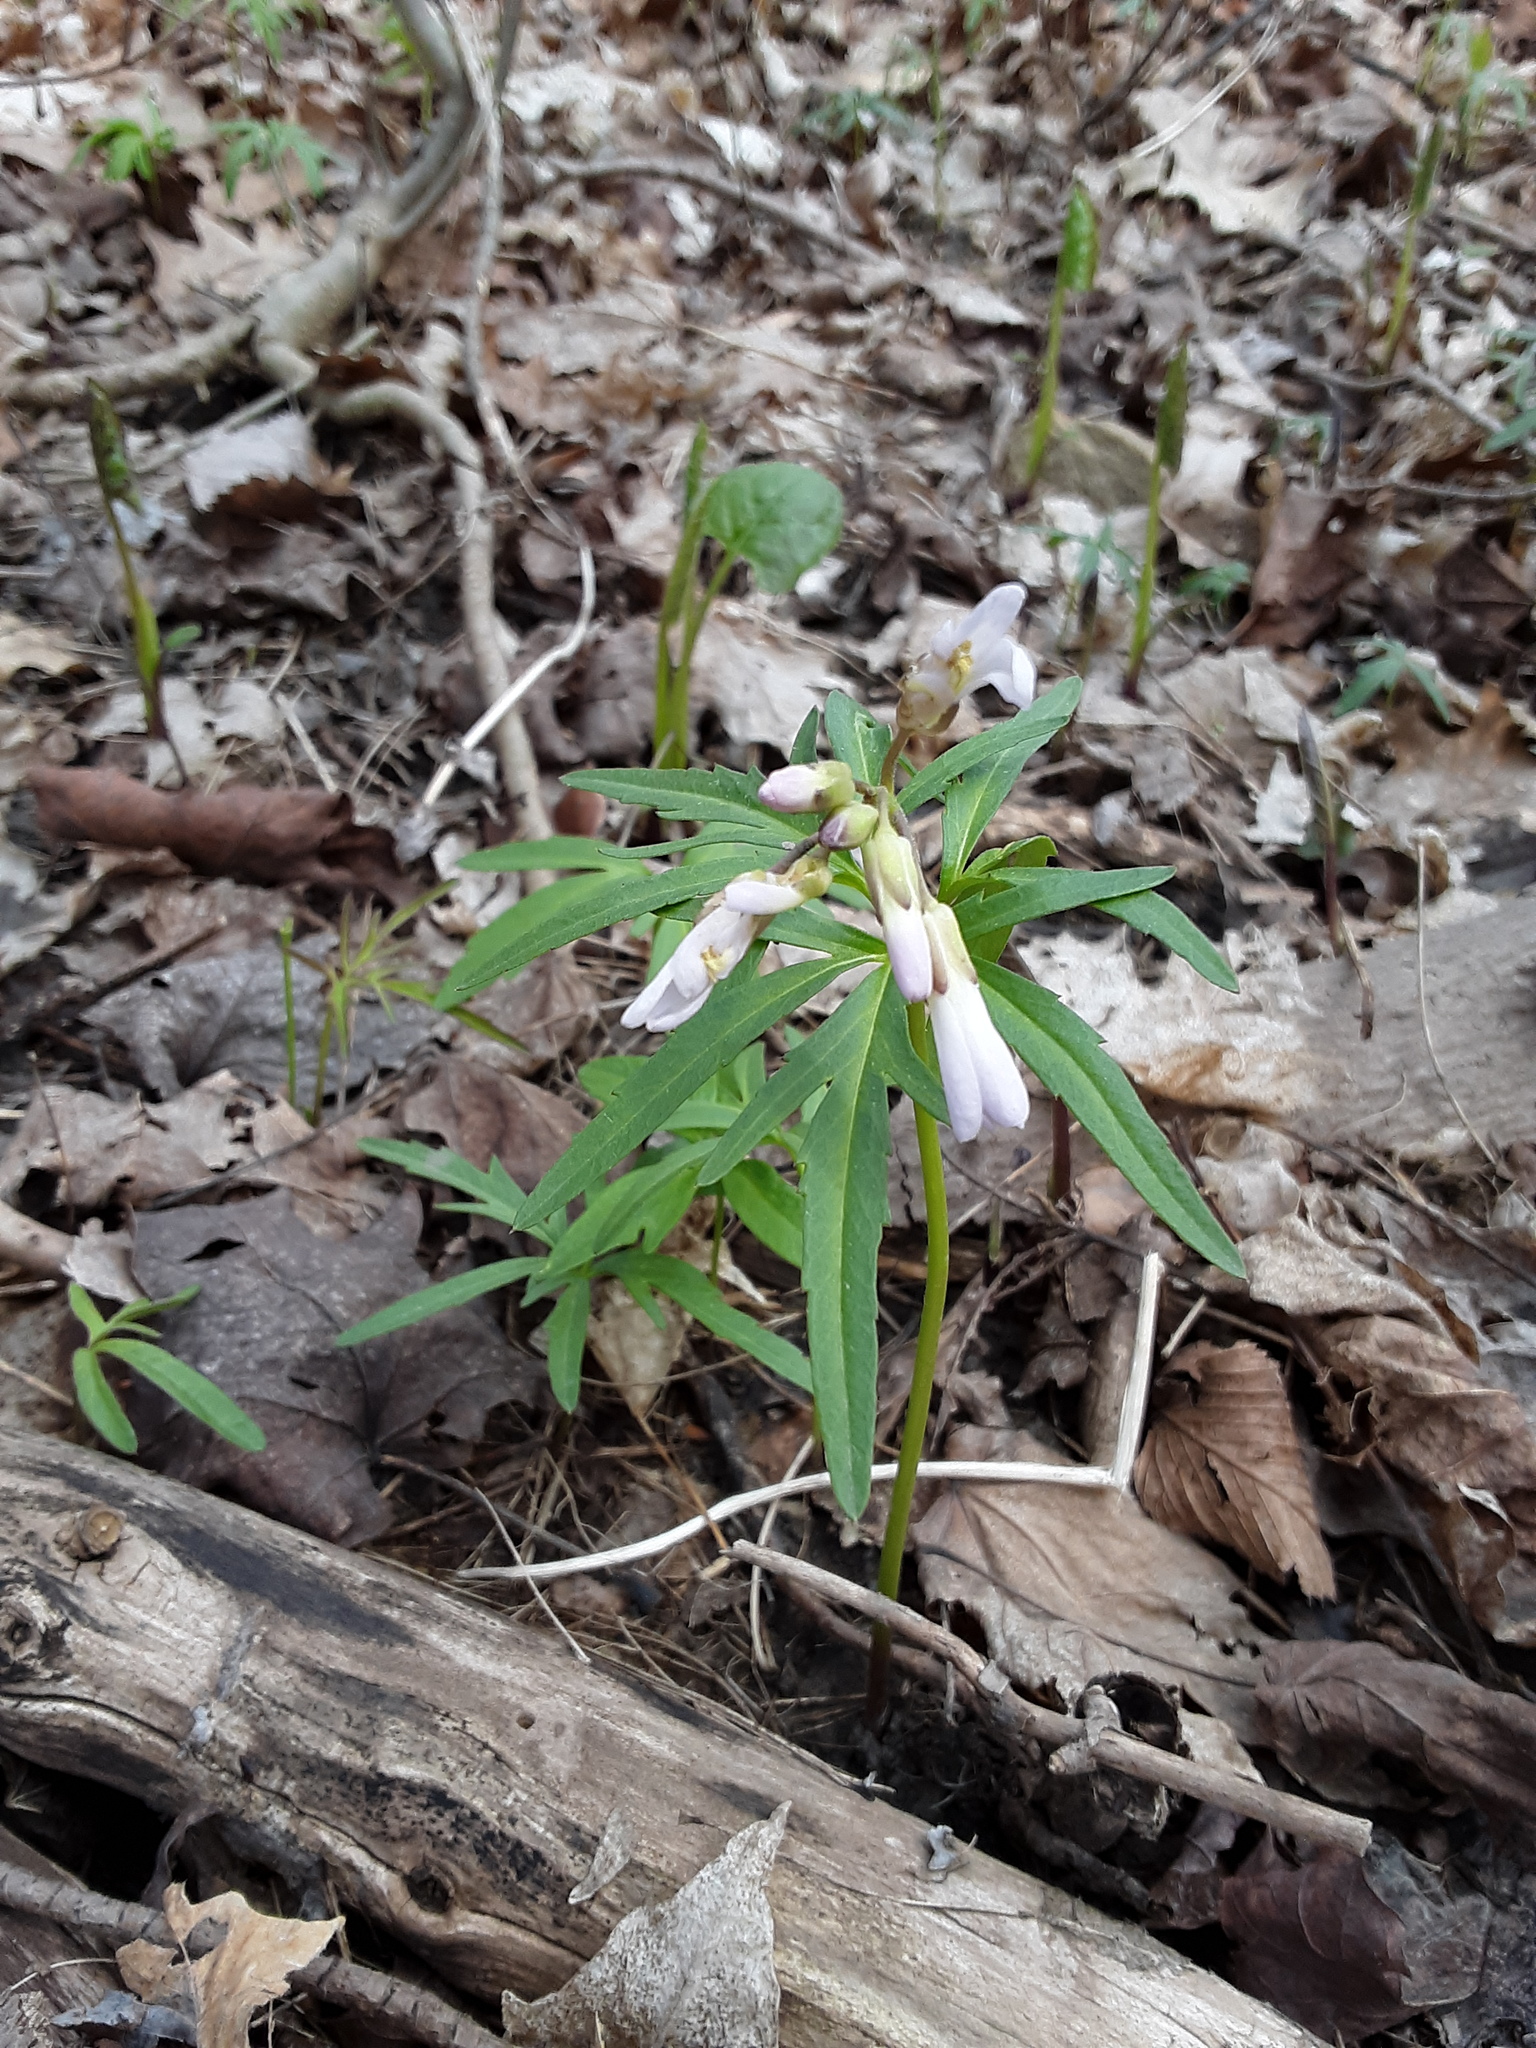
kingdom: Plantae
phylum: Tracheophyta
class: Magnoliopsida
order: Brassicales
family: Brassicaceae
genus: Cardamine
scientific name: Cardamine concatenata
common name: Cut-leaf toothcup
